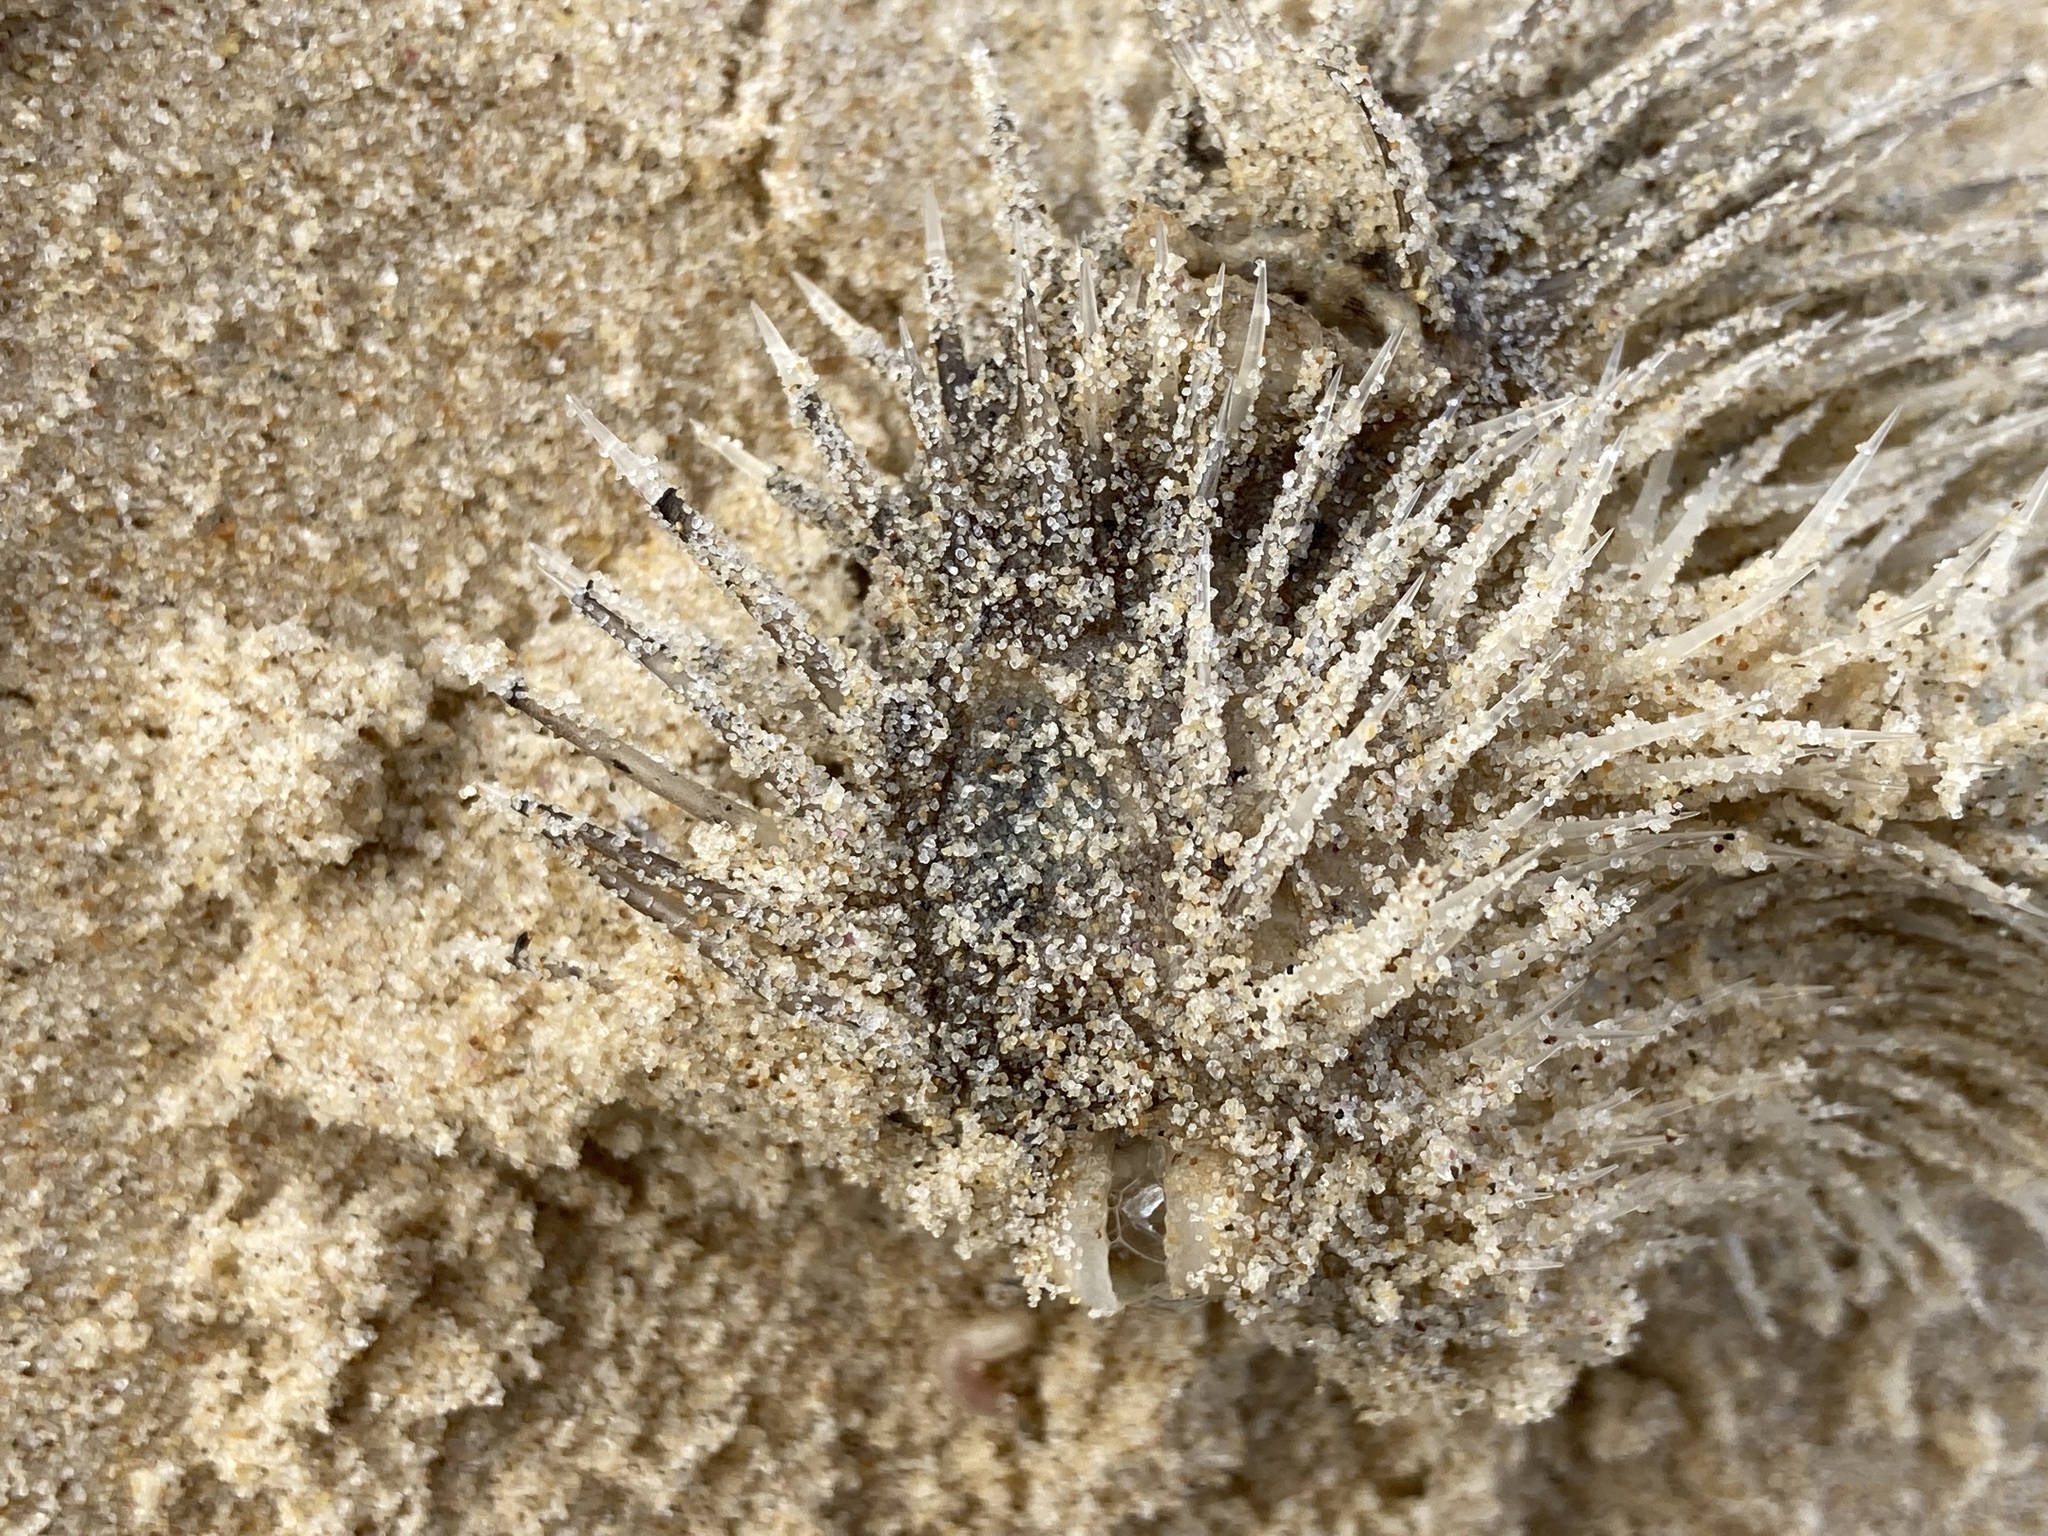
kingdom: Animalia
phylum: Chordata
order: Tetraodontiformes
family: Diodontidae
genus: Diodon
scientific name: Diodon holocanthus
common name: Balloonfish
